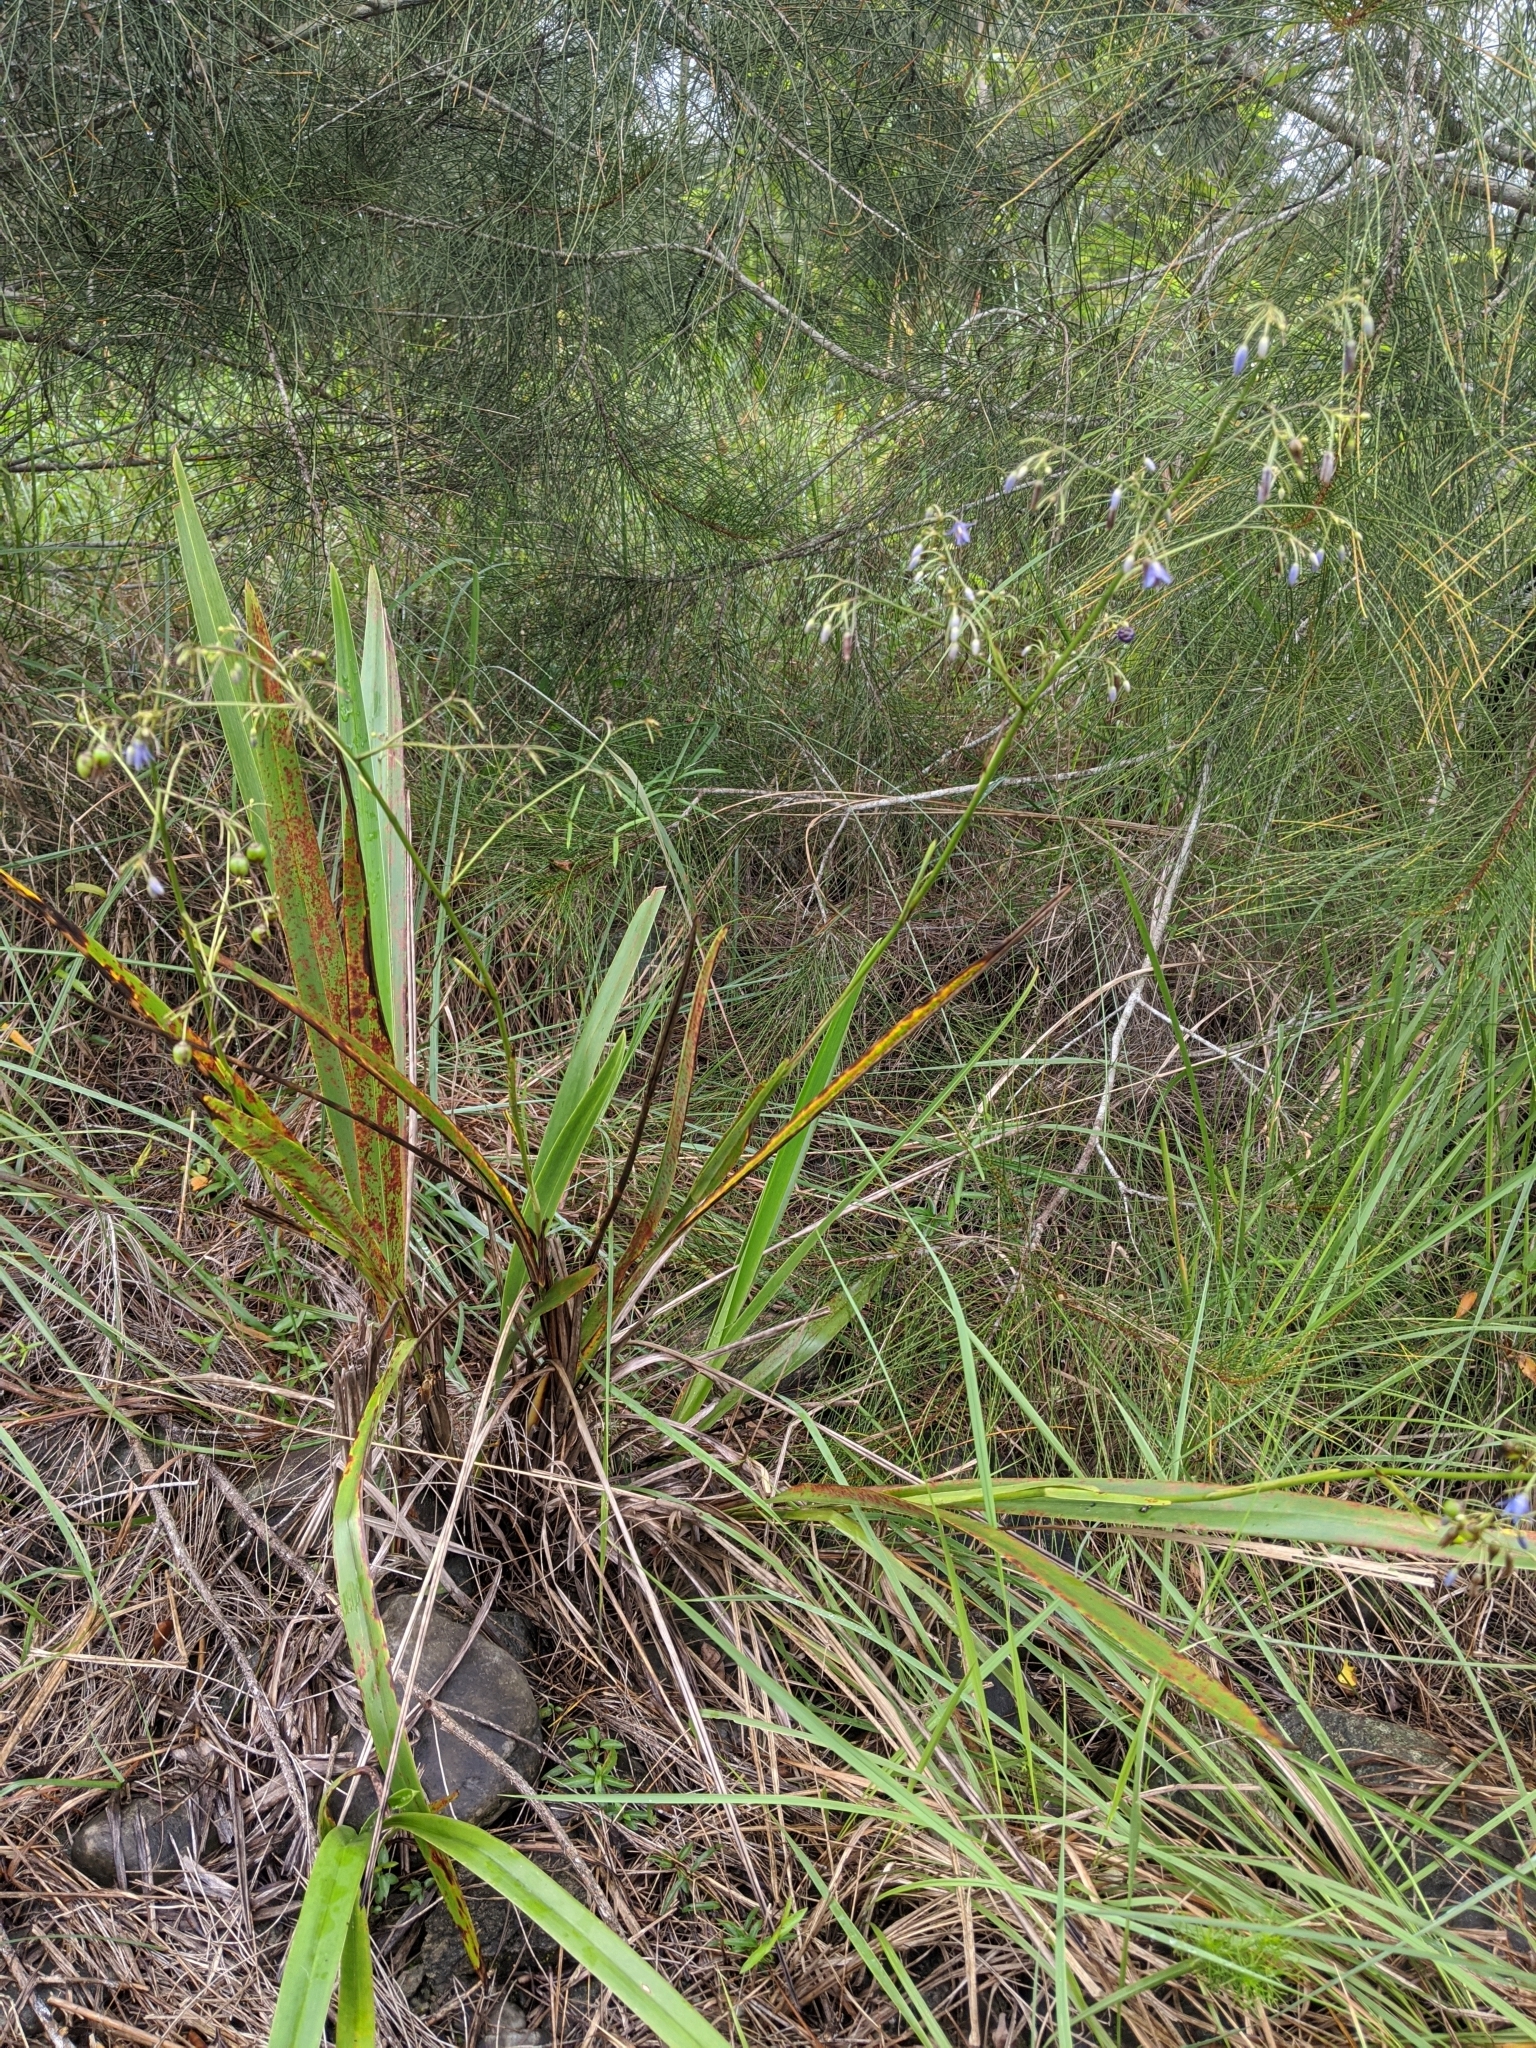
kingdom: Plantae
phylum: Tracheophyta
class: Liliopsida
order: Asparagales
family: Asphodelaceae
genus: Dianella
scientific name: Dianella ensifolia
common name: New zealand lilyplant
